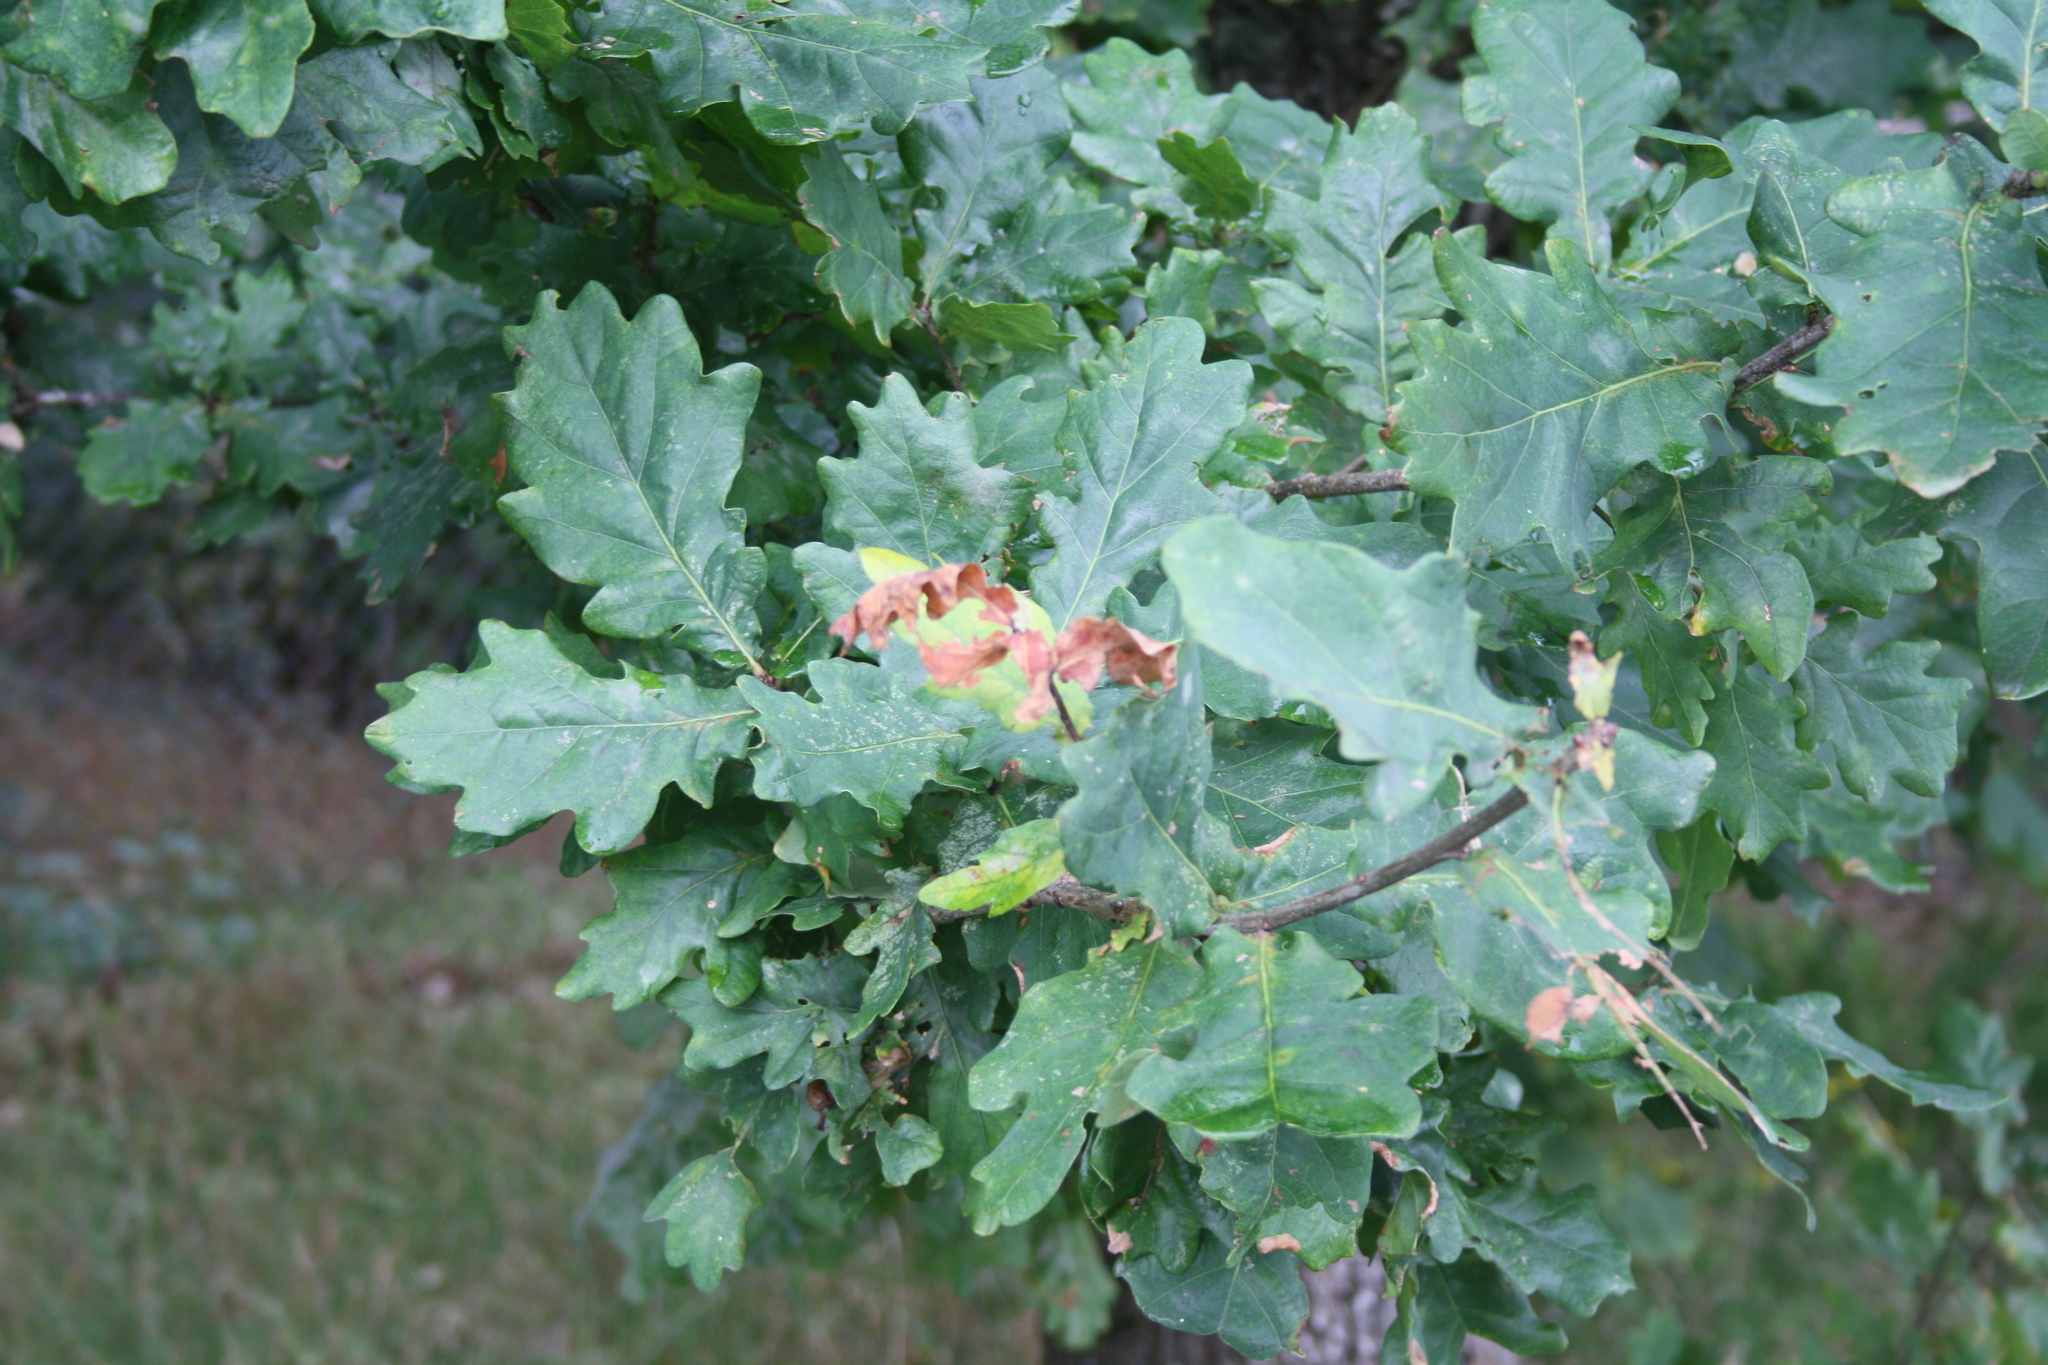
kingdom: Plantae
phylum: Tracheophyta
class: Magnoliopsida
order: Fagales
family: Fagaceae
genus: Quercus
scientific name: Quercus robur
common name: Pedunculate oak
